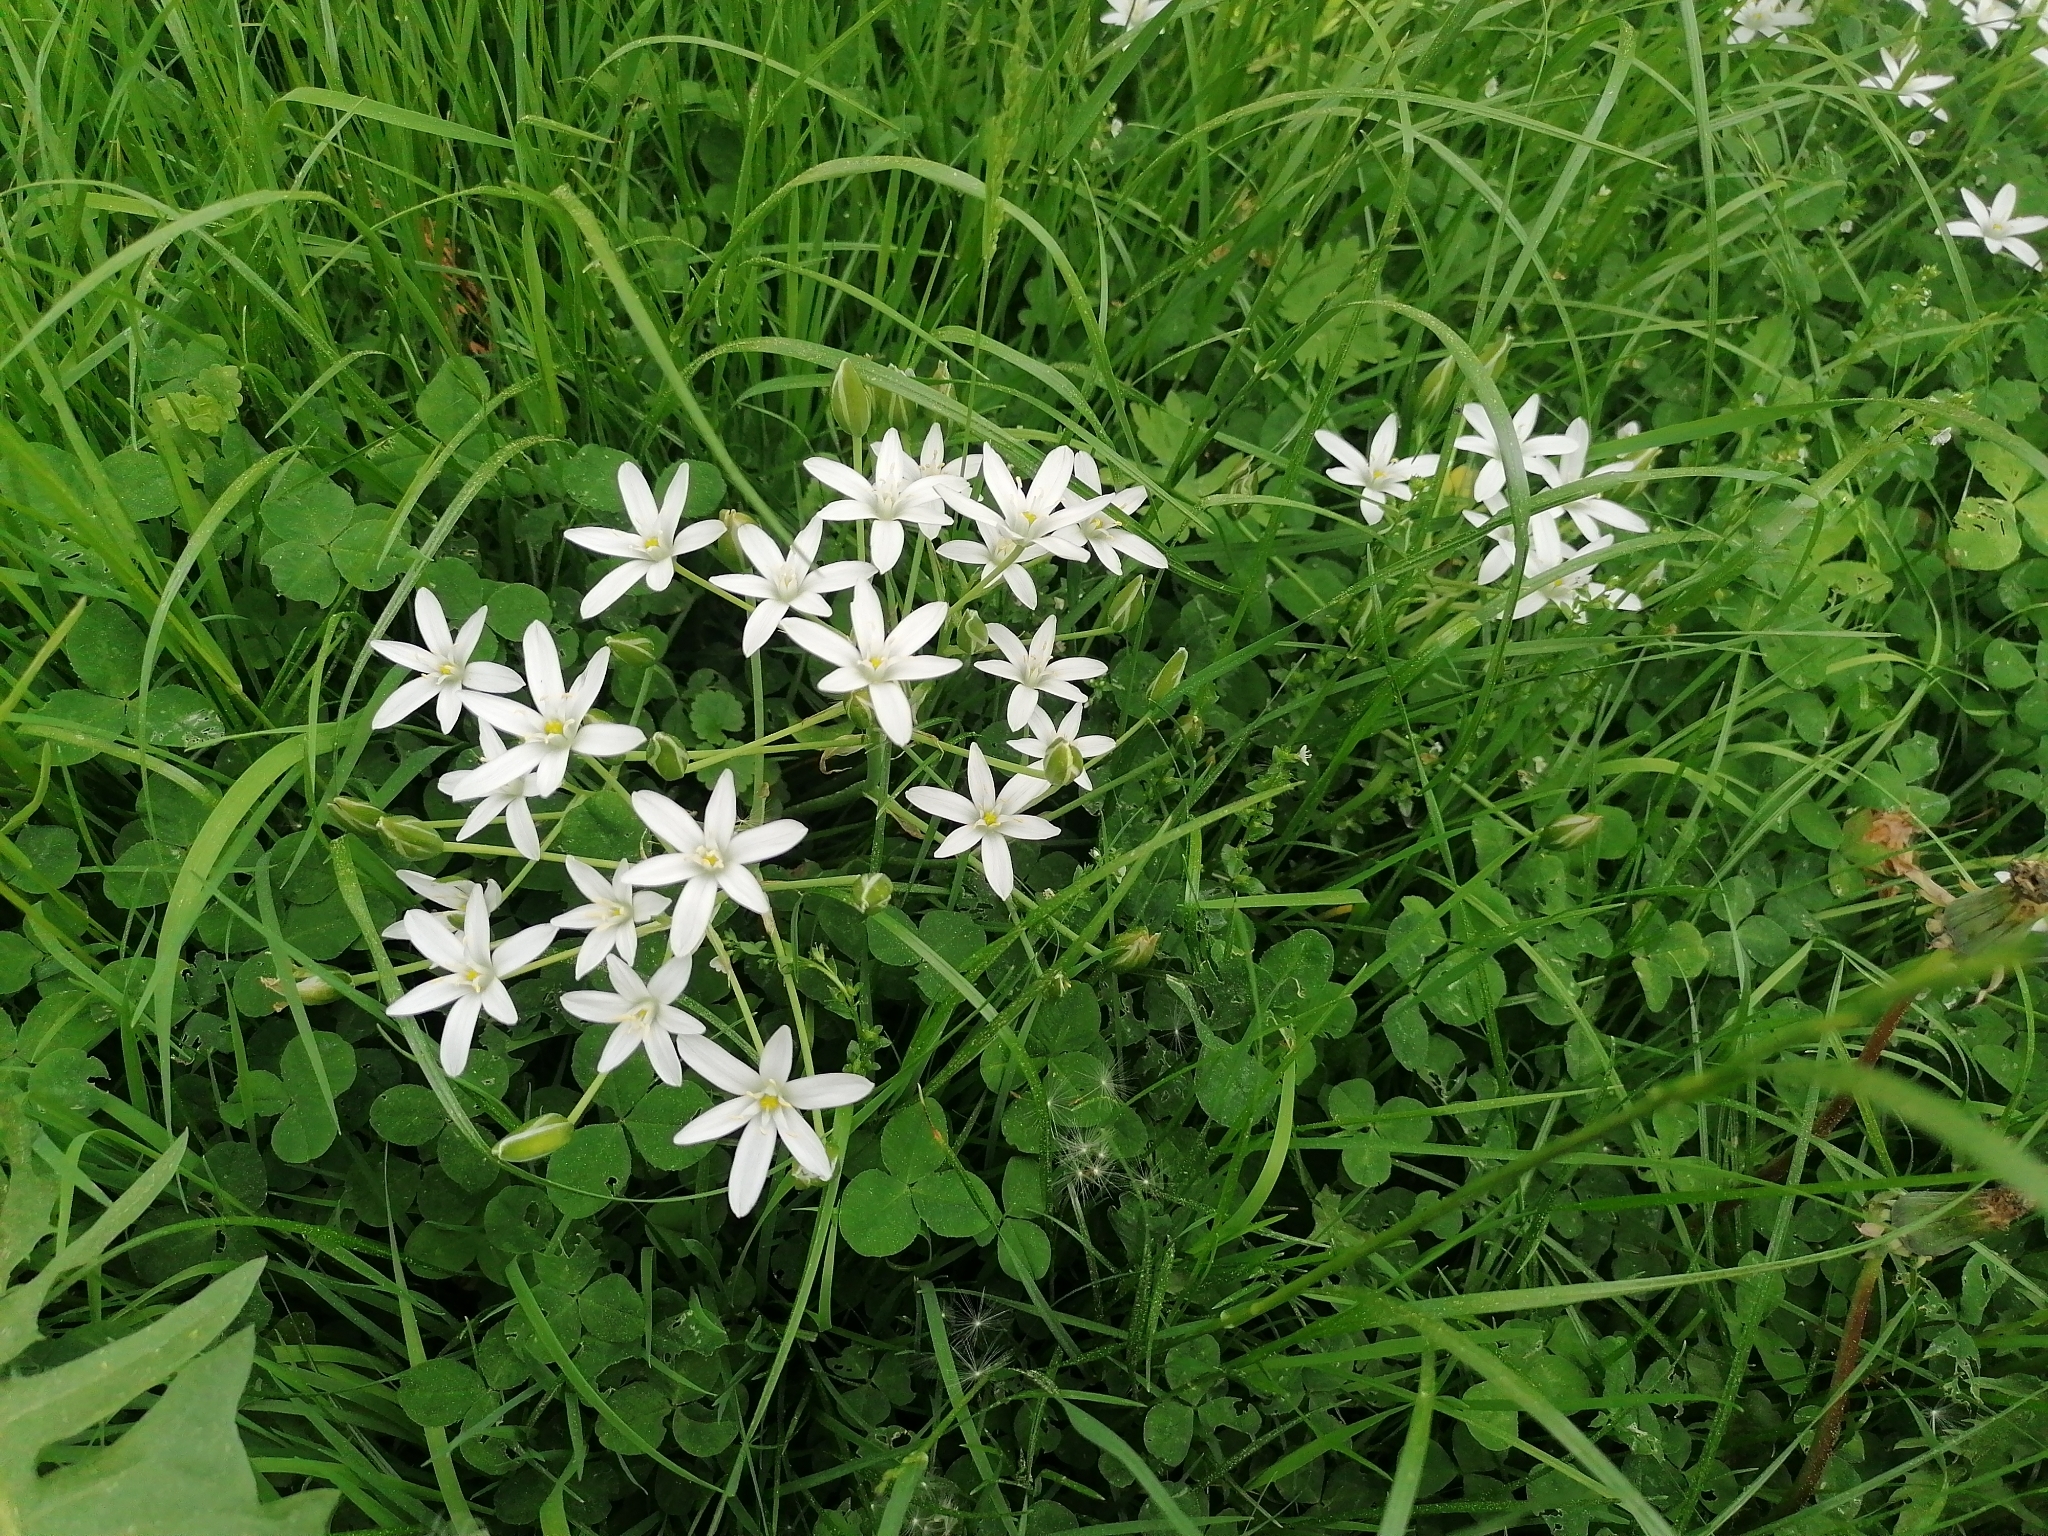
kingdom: Plantae
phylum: Tracheophyta
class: Liliopsida
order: Asparagales
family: Asparagaceae
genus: Ornithogalum
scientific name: Ornithogalum umbellatum
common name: Garden star-of-bethlehem
